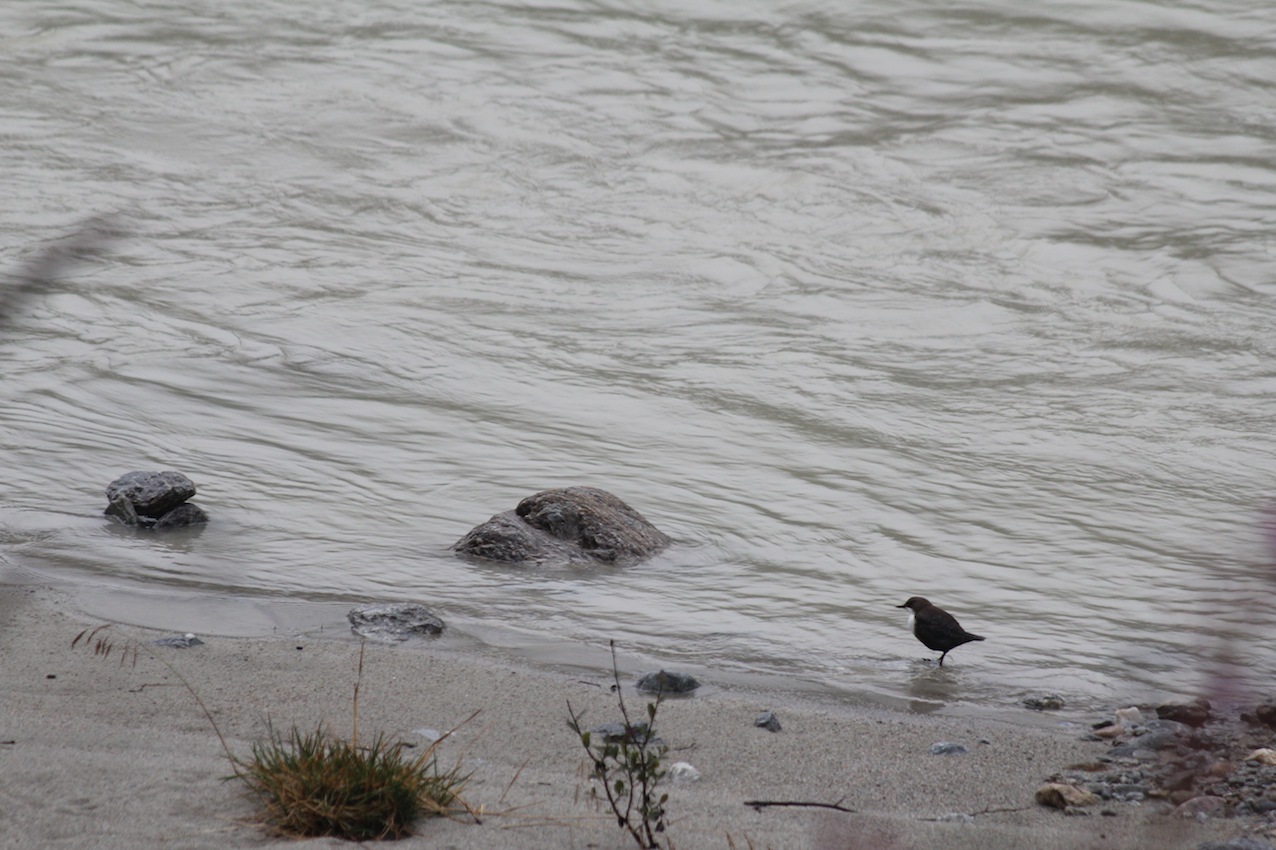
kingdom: Animalia
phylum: Chordata
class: Aves
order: Passeriformes
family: Cinclidae
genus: Cinclus
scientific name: Cinclus cinclus
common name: White-throated dipper
